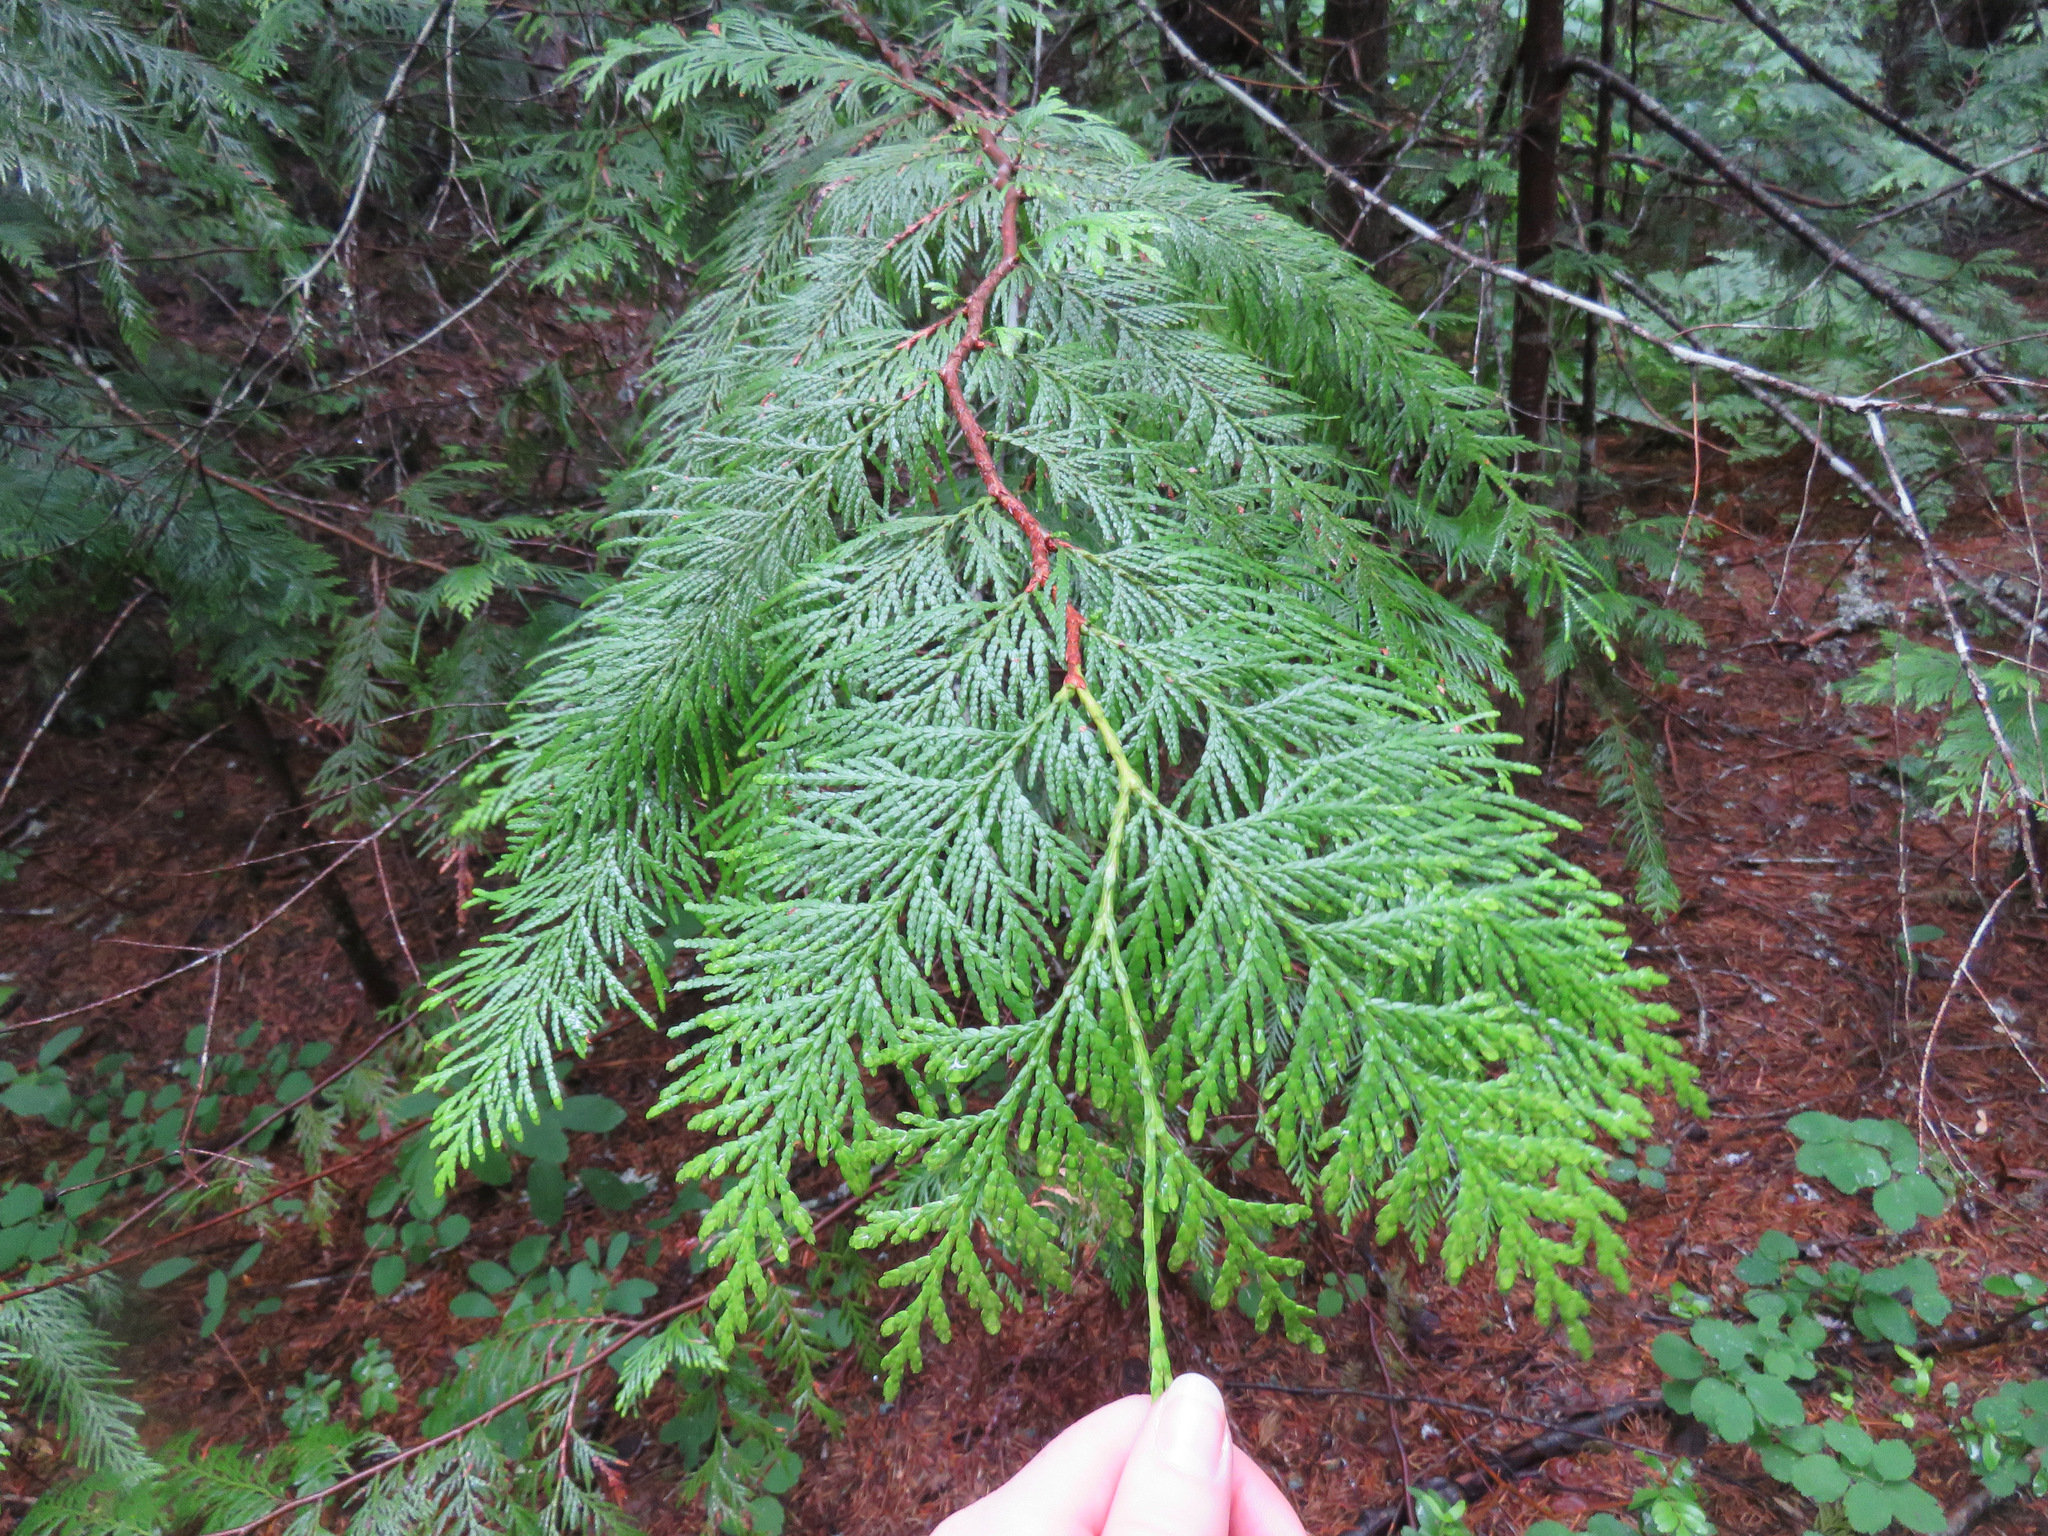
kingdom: Plantae
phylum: Tracheophyta
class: Pinopsida
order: Pinales
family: Cupressaceae
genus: Thuja
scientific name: Thuja plicata
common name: Western red-cedar
